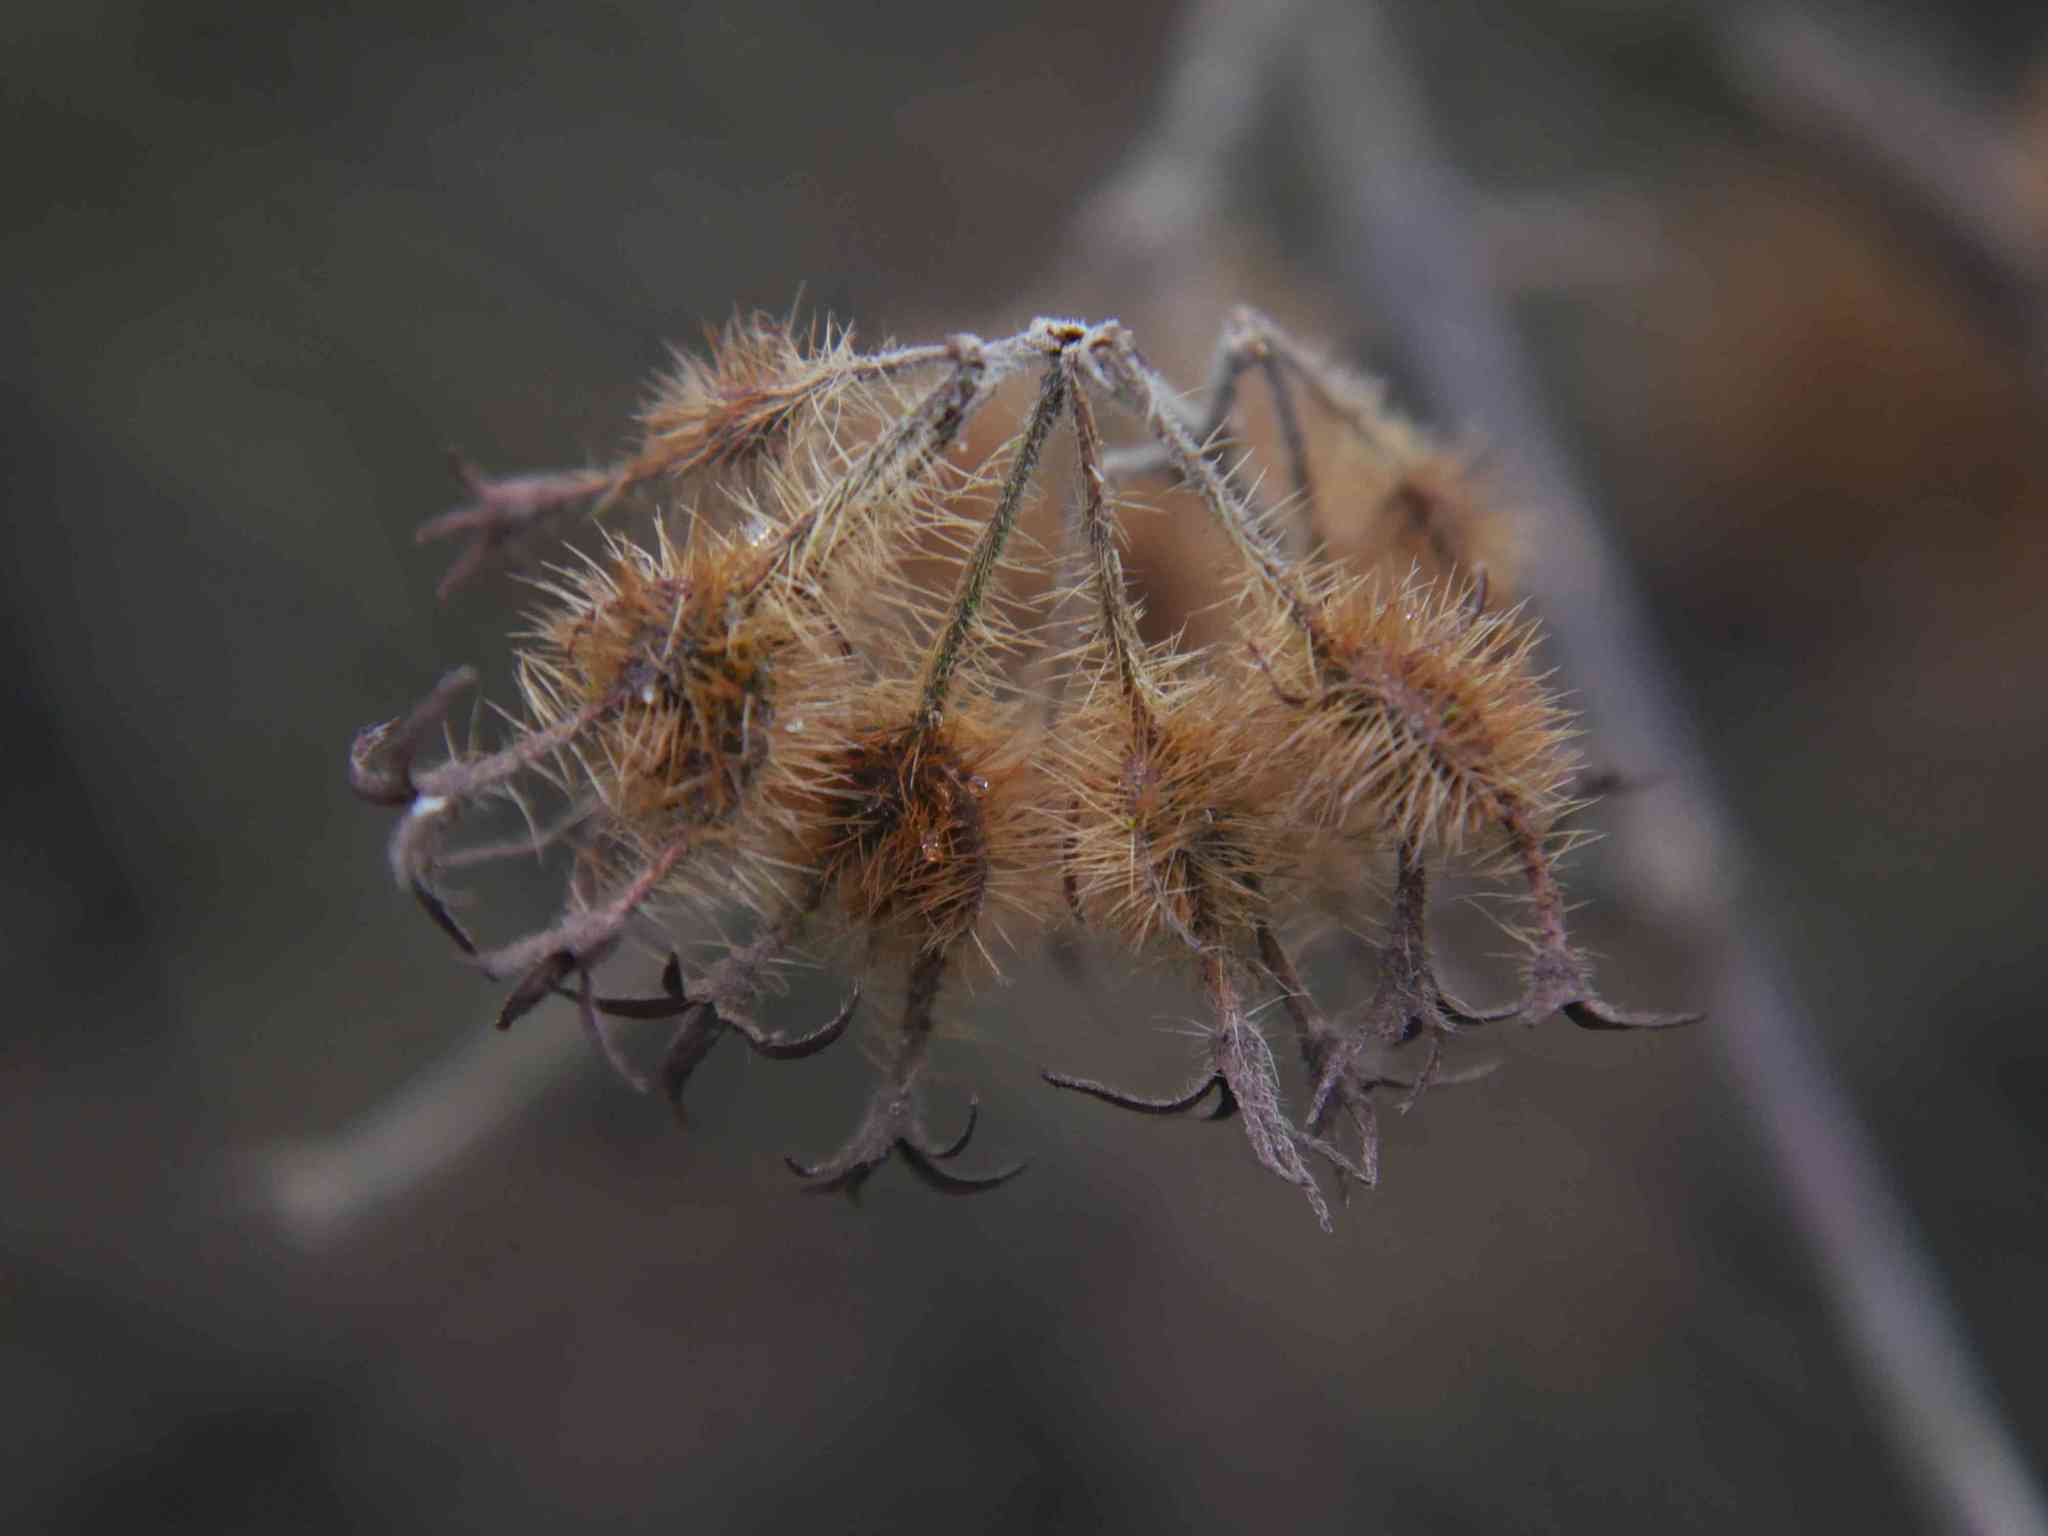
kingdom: Plantae
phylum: Tracheophyta
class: Magnoliopsida
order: Dipsacales
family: Caprifoliaceae
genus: Kolkwitzia
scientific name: Kolkwitzia amabilis
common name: Beautybush
